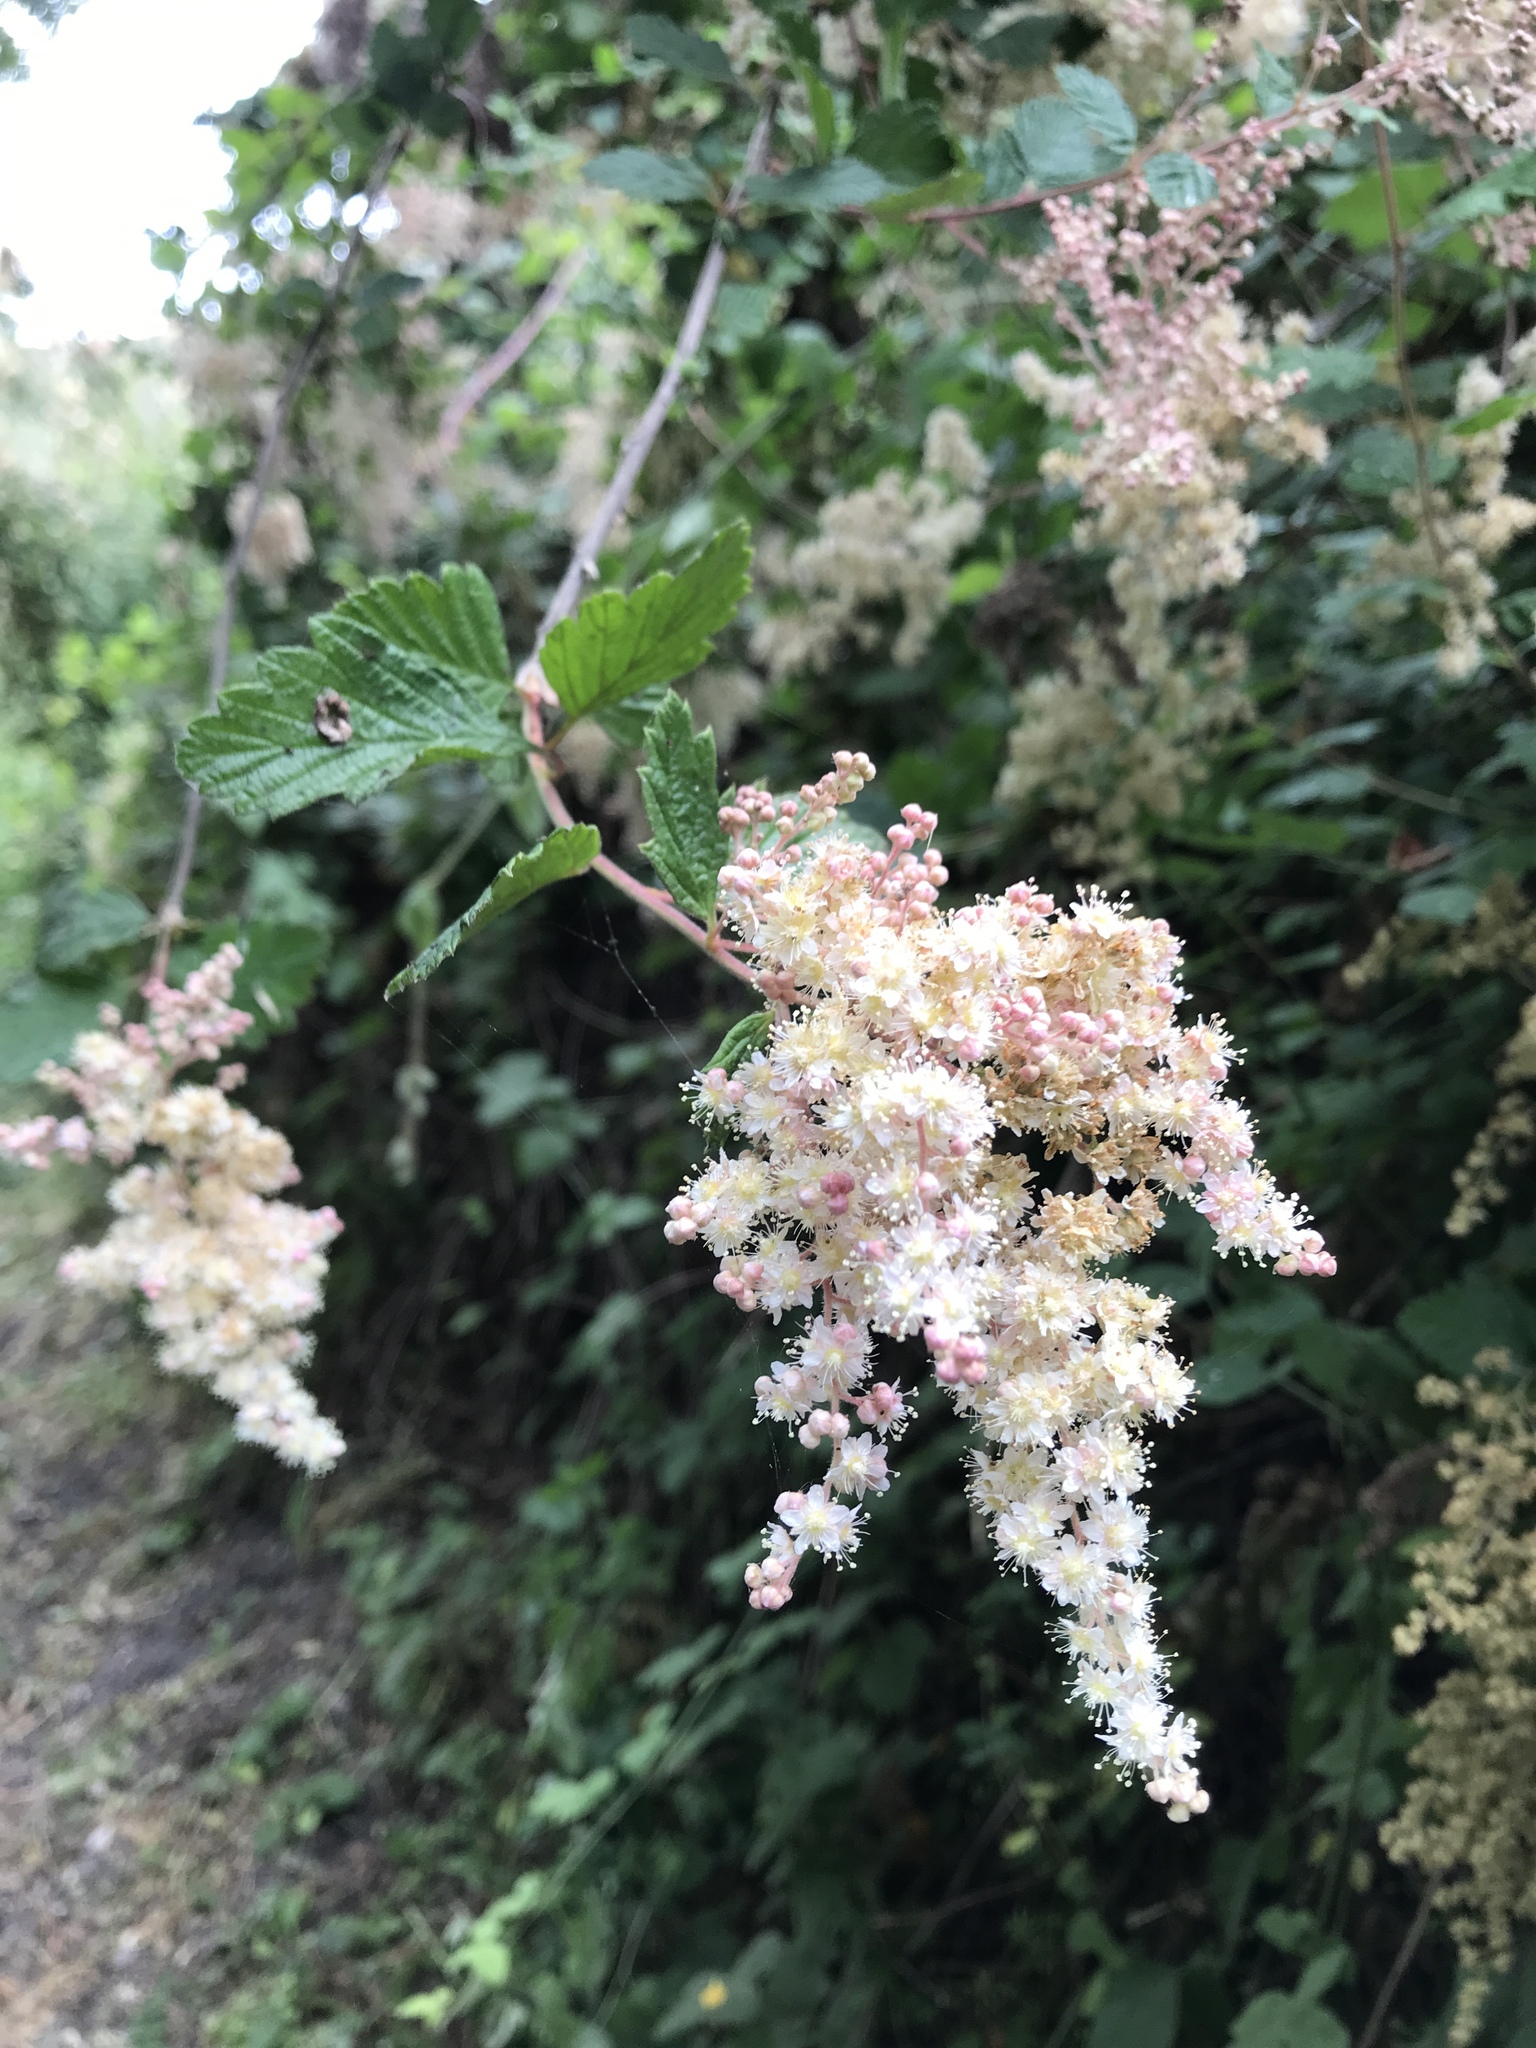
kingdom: Plantae
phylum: Tracheophyta
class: Magnoliopsida
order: Rosales
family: Rosaceae
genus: Holodiscus
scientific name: Holodiscus discolor
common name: Oceanspray
